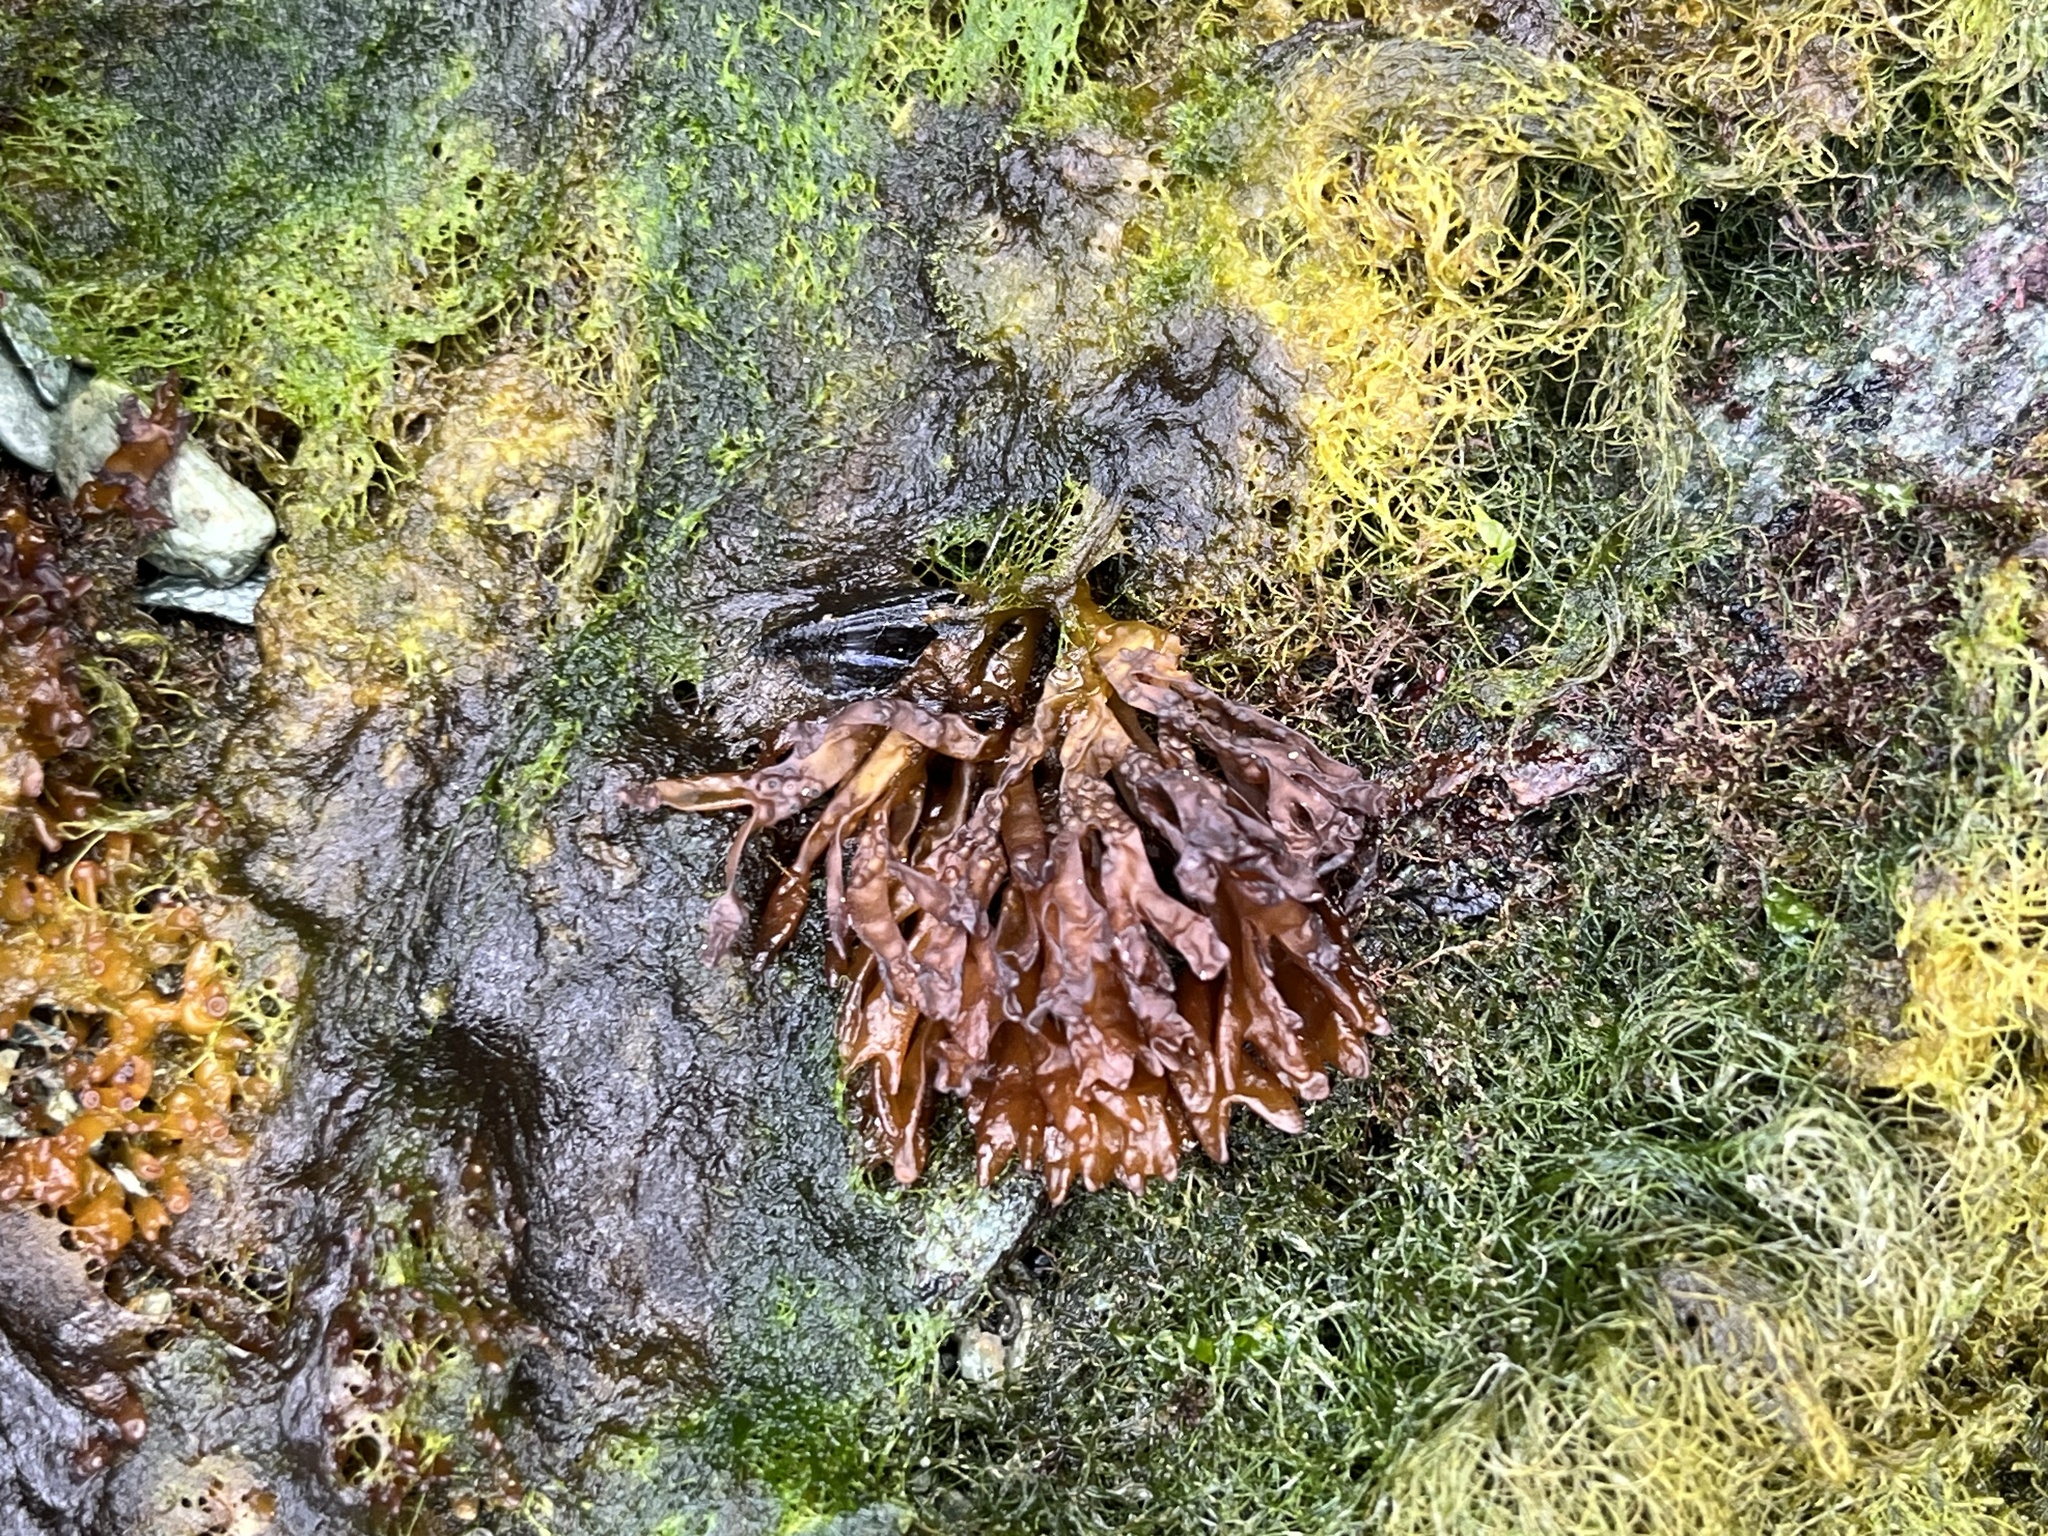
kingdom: Plantae
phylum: Rhodophyta
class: Florideophyceae
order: Nemaliales
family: Scinaiaceae
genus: Nothogenia
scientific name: Nothogenia fastigiata
